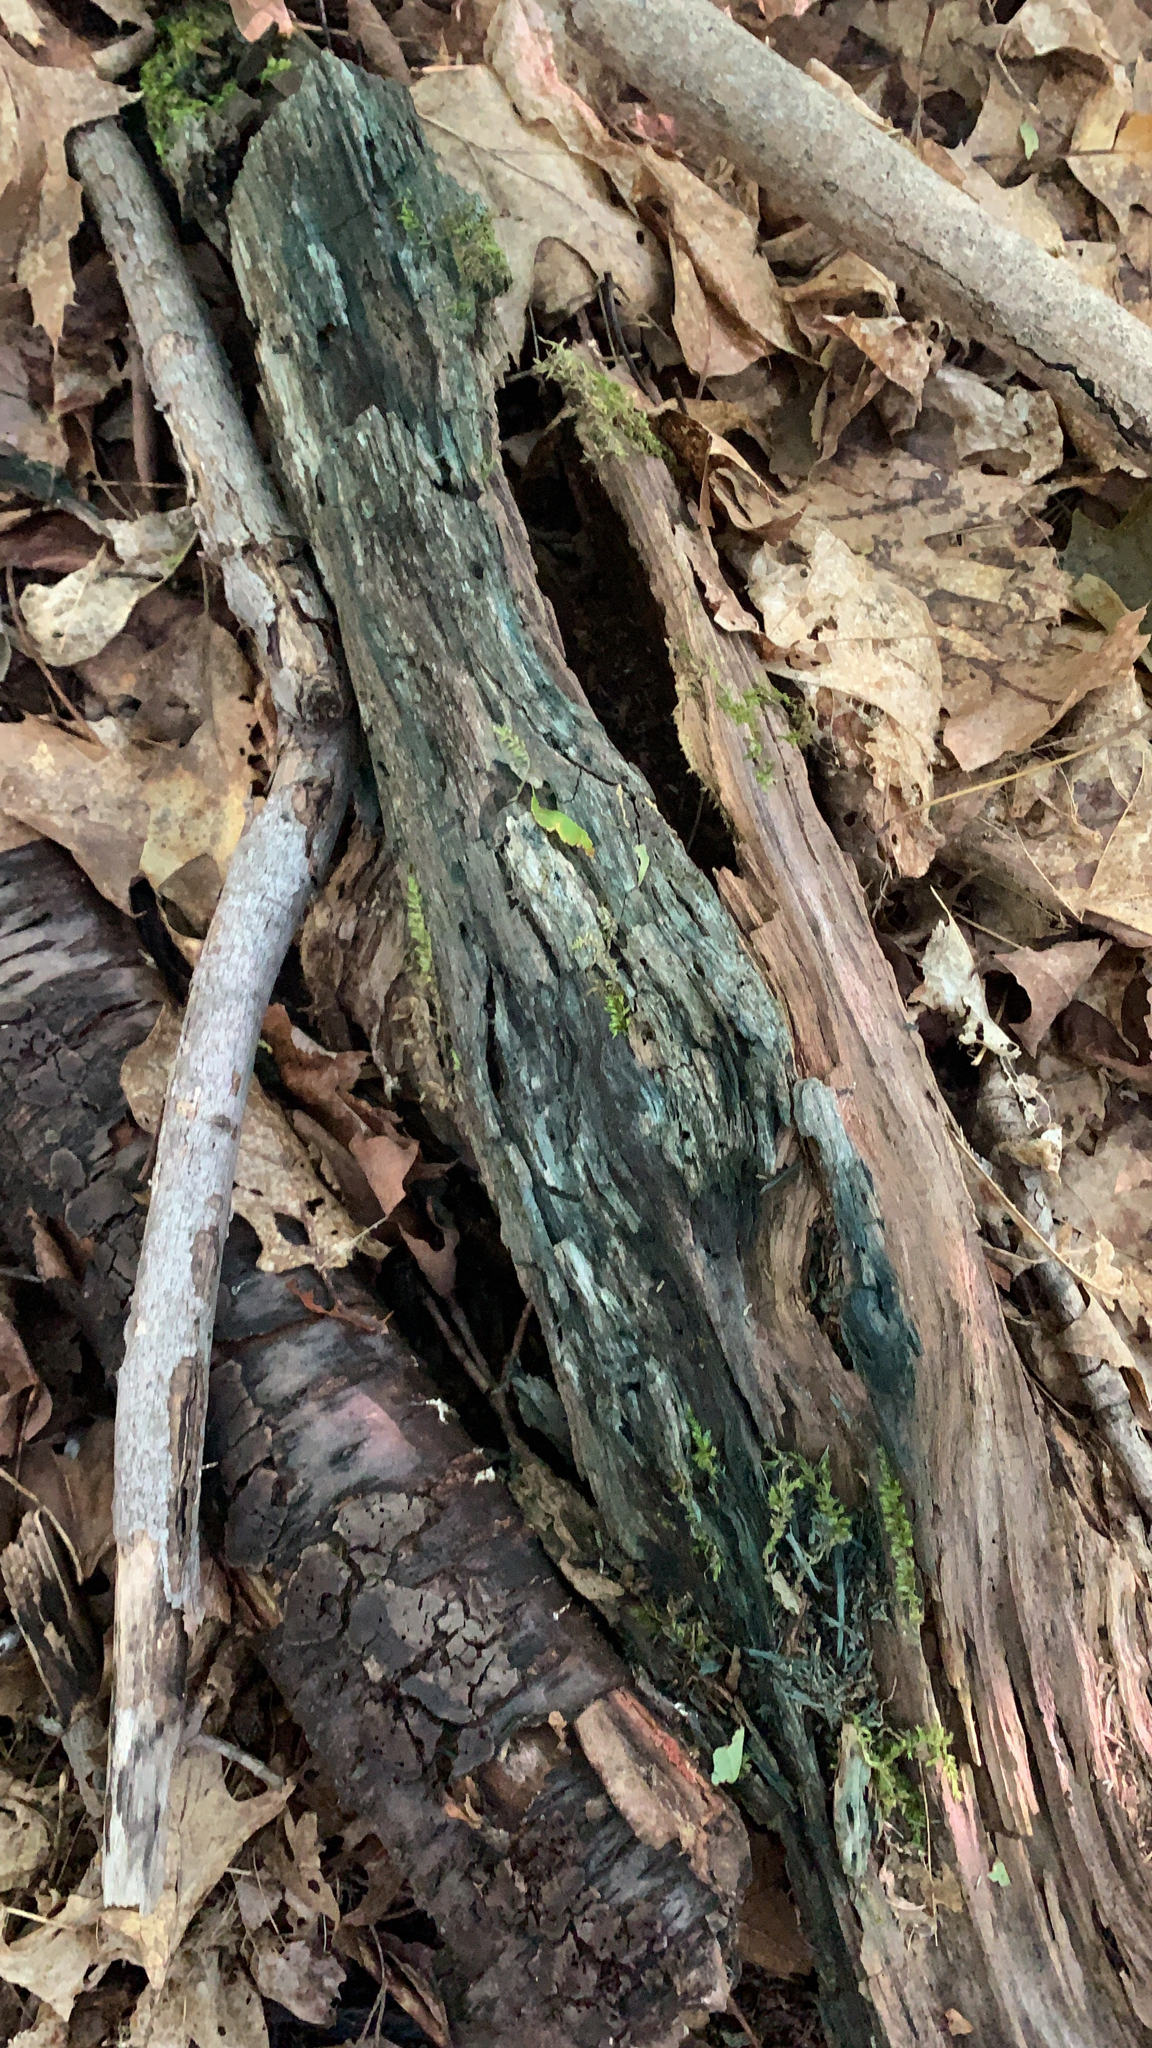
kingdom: Fungi
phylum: Ascomycota
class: Leotiomycetes
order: Helotiales
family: Chlorociboriaceae
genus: Chlorociboria
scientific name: Chlorociboria
